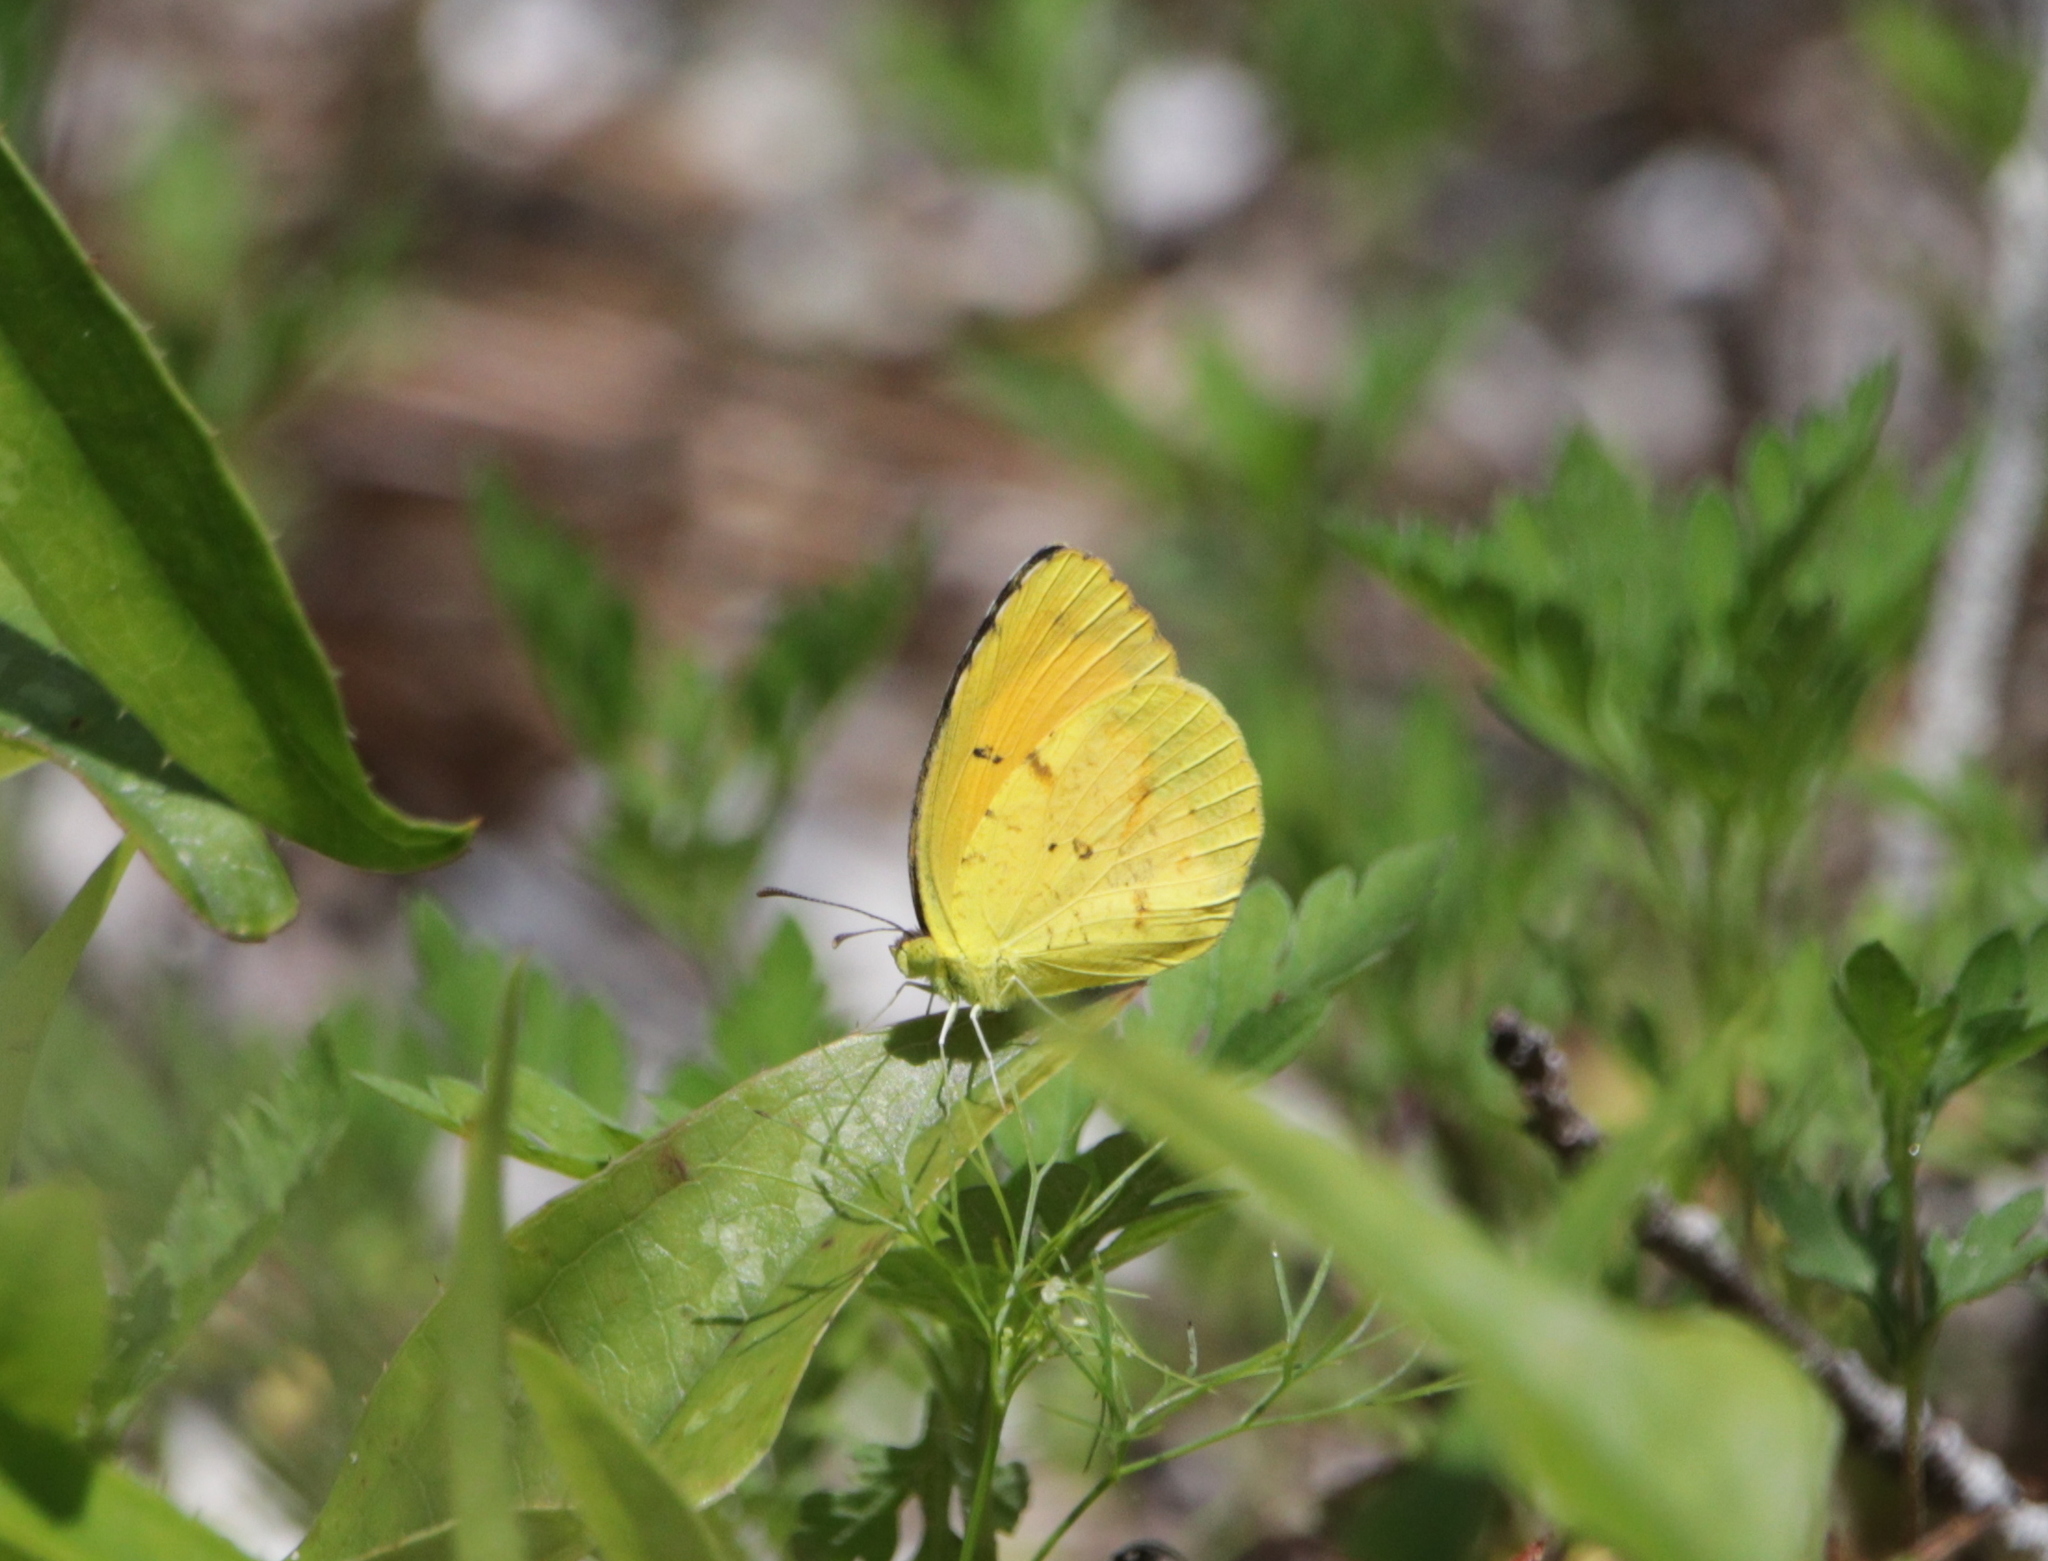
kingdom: Animalia
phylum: Arthropoda
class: Insecta
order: Lepidoptera
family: Pieridae
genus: Abaeis
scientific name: Abaeis nicippe
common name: Sleepy orange
